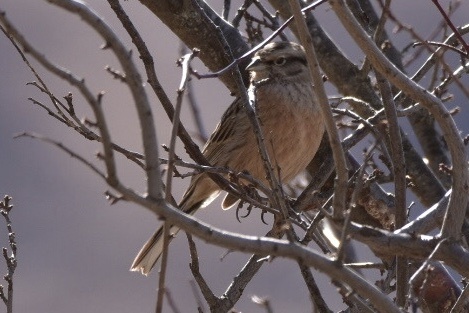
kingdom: Animalia
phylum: Chordata
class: Aves
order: Passeriformes
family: Emberizidae
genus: Emberiza
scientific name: Emberiza cia
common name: Rock bunting
